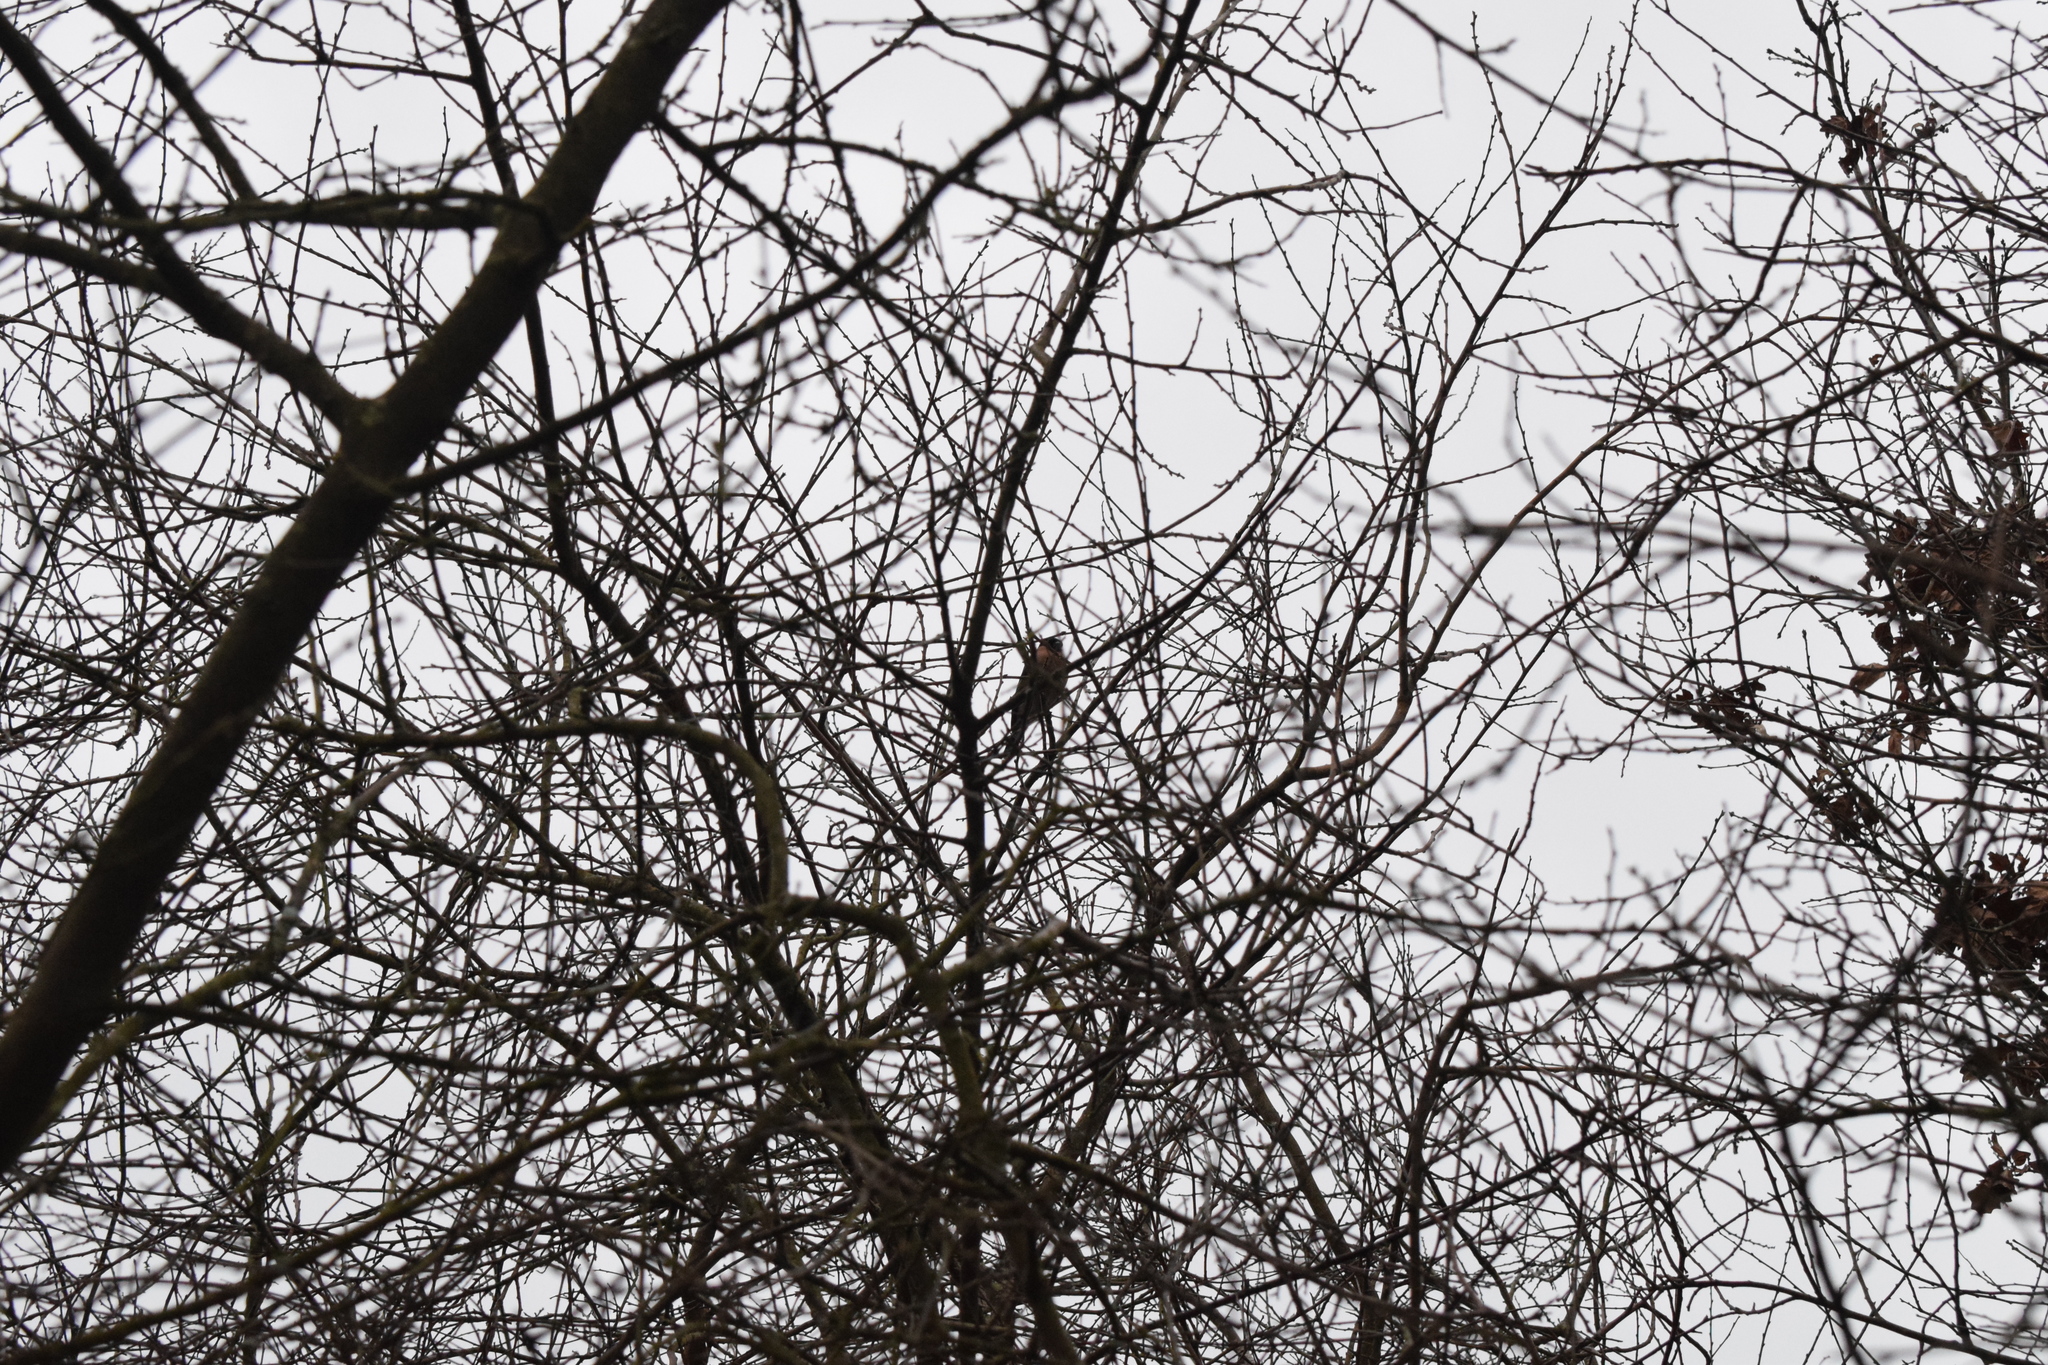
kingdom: Animalia
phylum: Chordata
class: Aves
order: Passeriformes
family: Fringillidae
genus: Pyrrhula
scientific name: Pyrrhula pyrrhula
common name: Eurasian bullfinch
